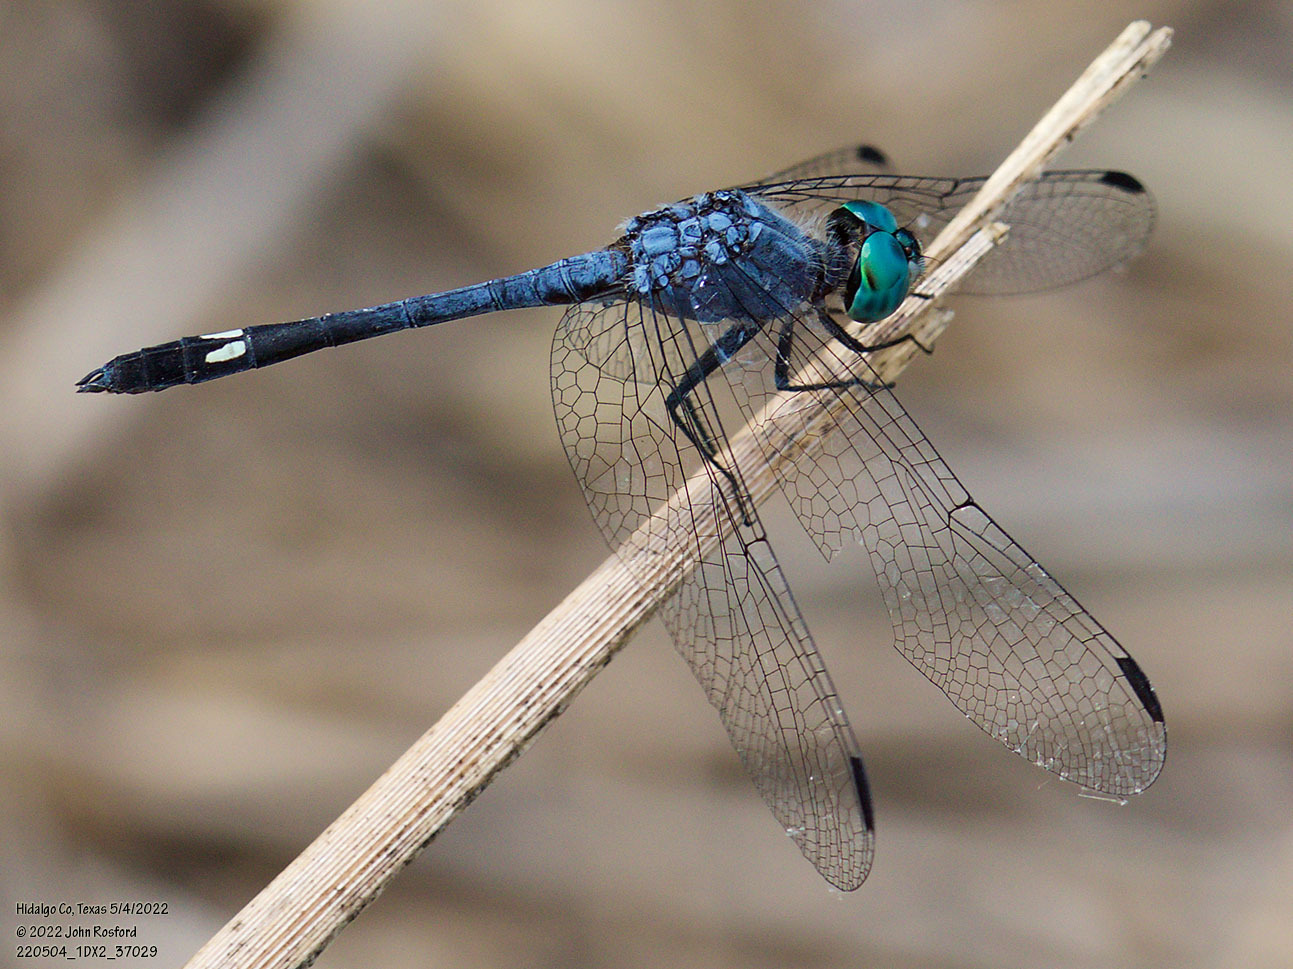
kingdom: Animalia
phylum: Arthropoda
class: Insecta
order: Odonata
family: Libellulidae
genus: Micrathyria
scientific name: Micrathyria aequalis
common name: Spot-tailed dasher
